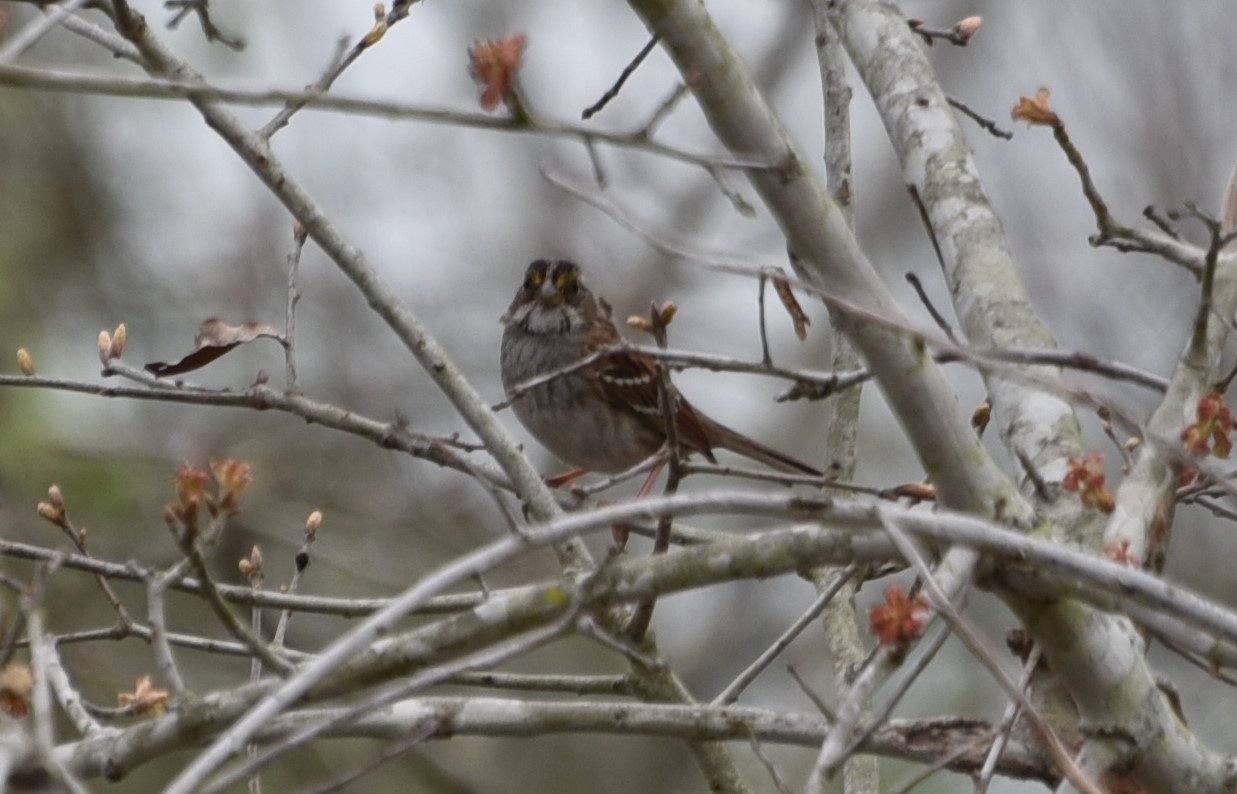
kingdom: Animalia
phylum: Chordata
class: Aves
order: Passeriformes
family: Passerellidae
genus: Zonotrichia
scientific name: Zonotrichia albicollis
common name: White-throated sparrow
